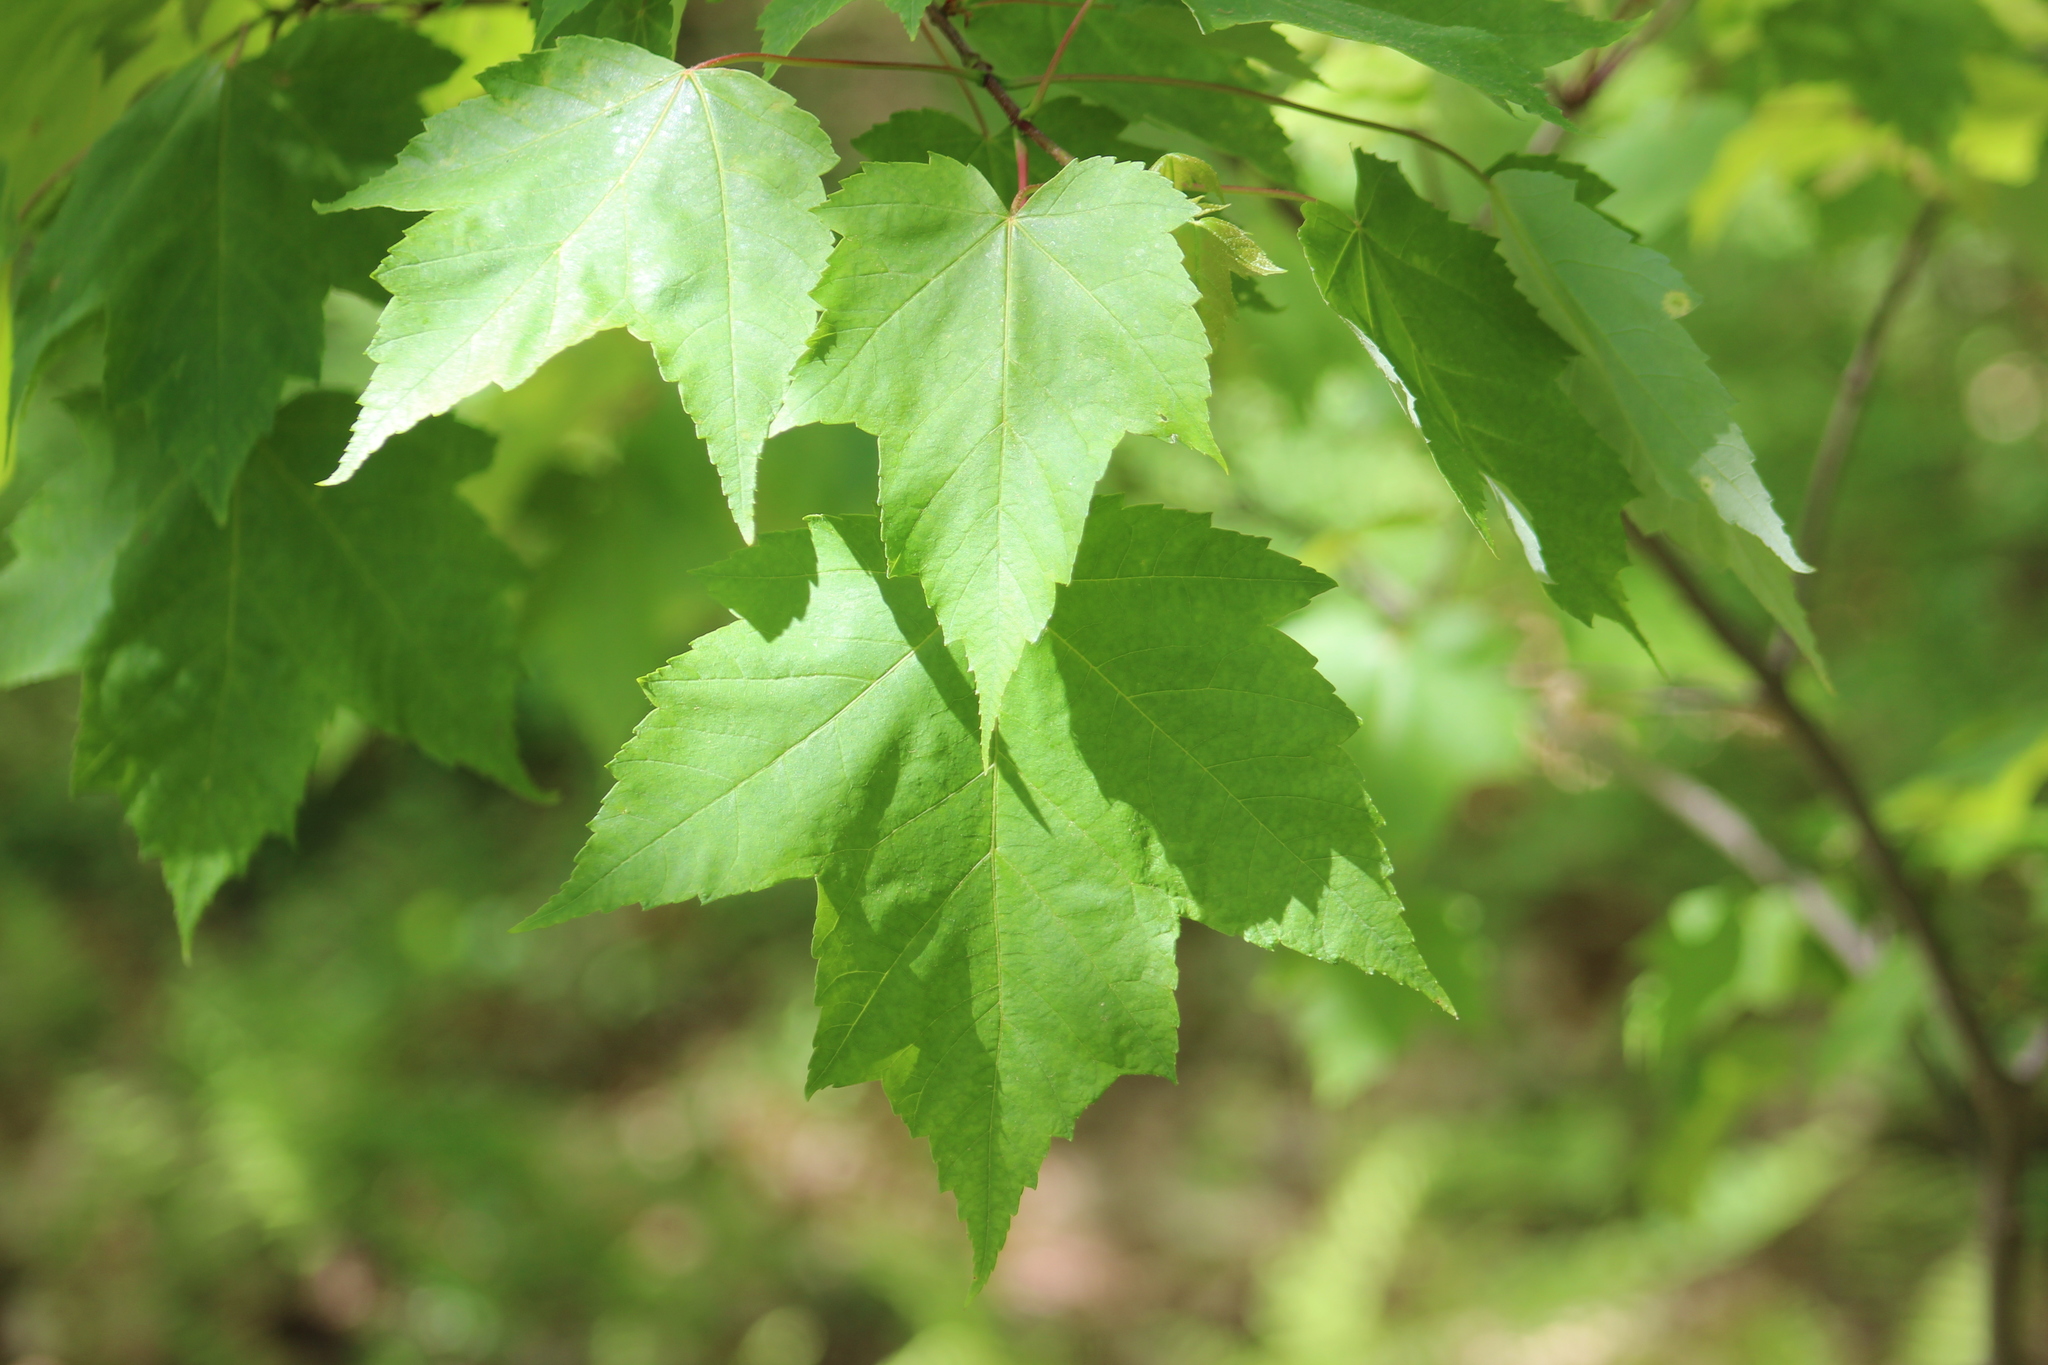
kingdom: Plantae
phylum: Tracheophyta
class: Magnoliopsida
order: Sapindales
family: Sapindaceae
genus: Acer
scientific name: Acer rubrum
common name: Red maple
